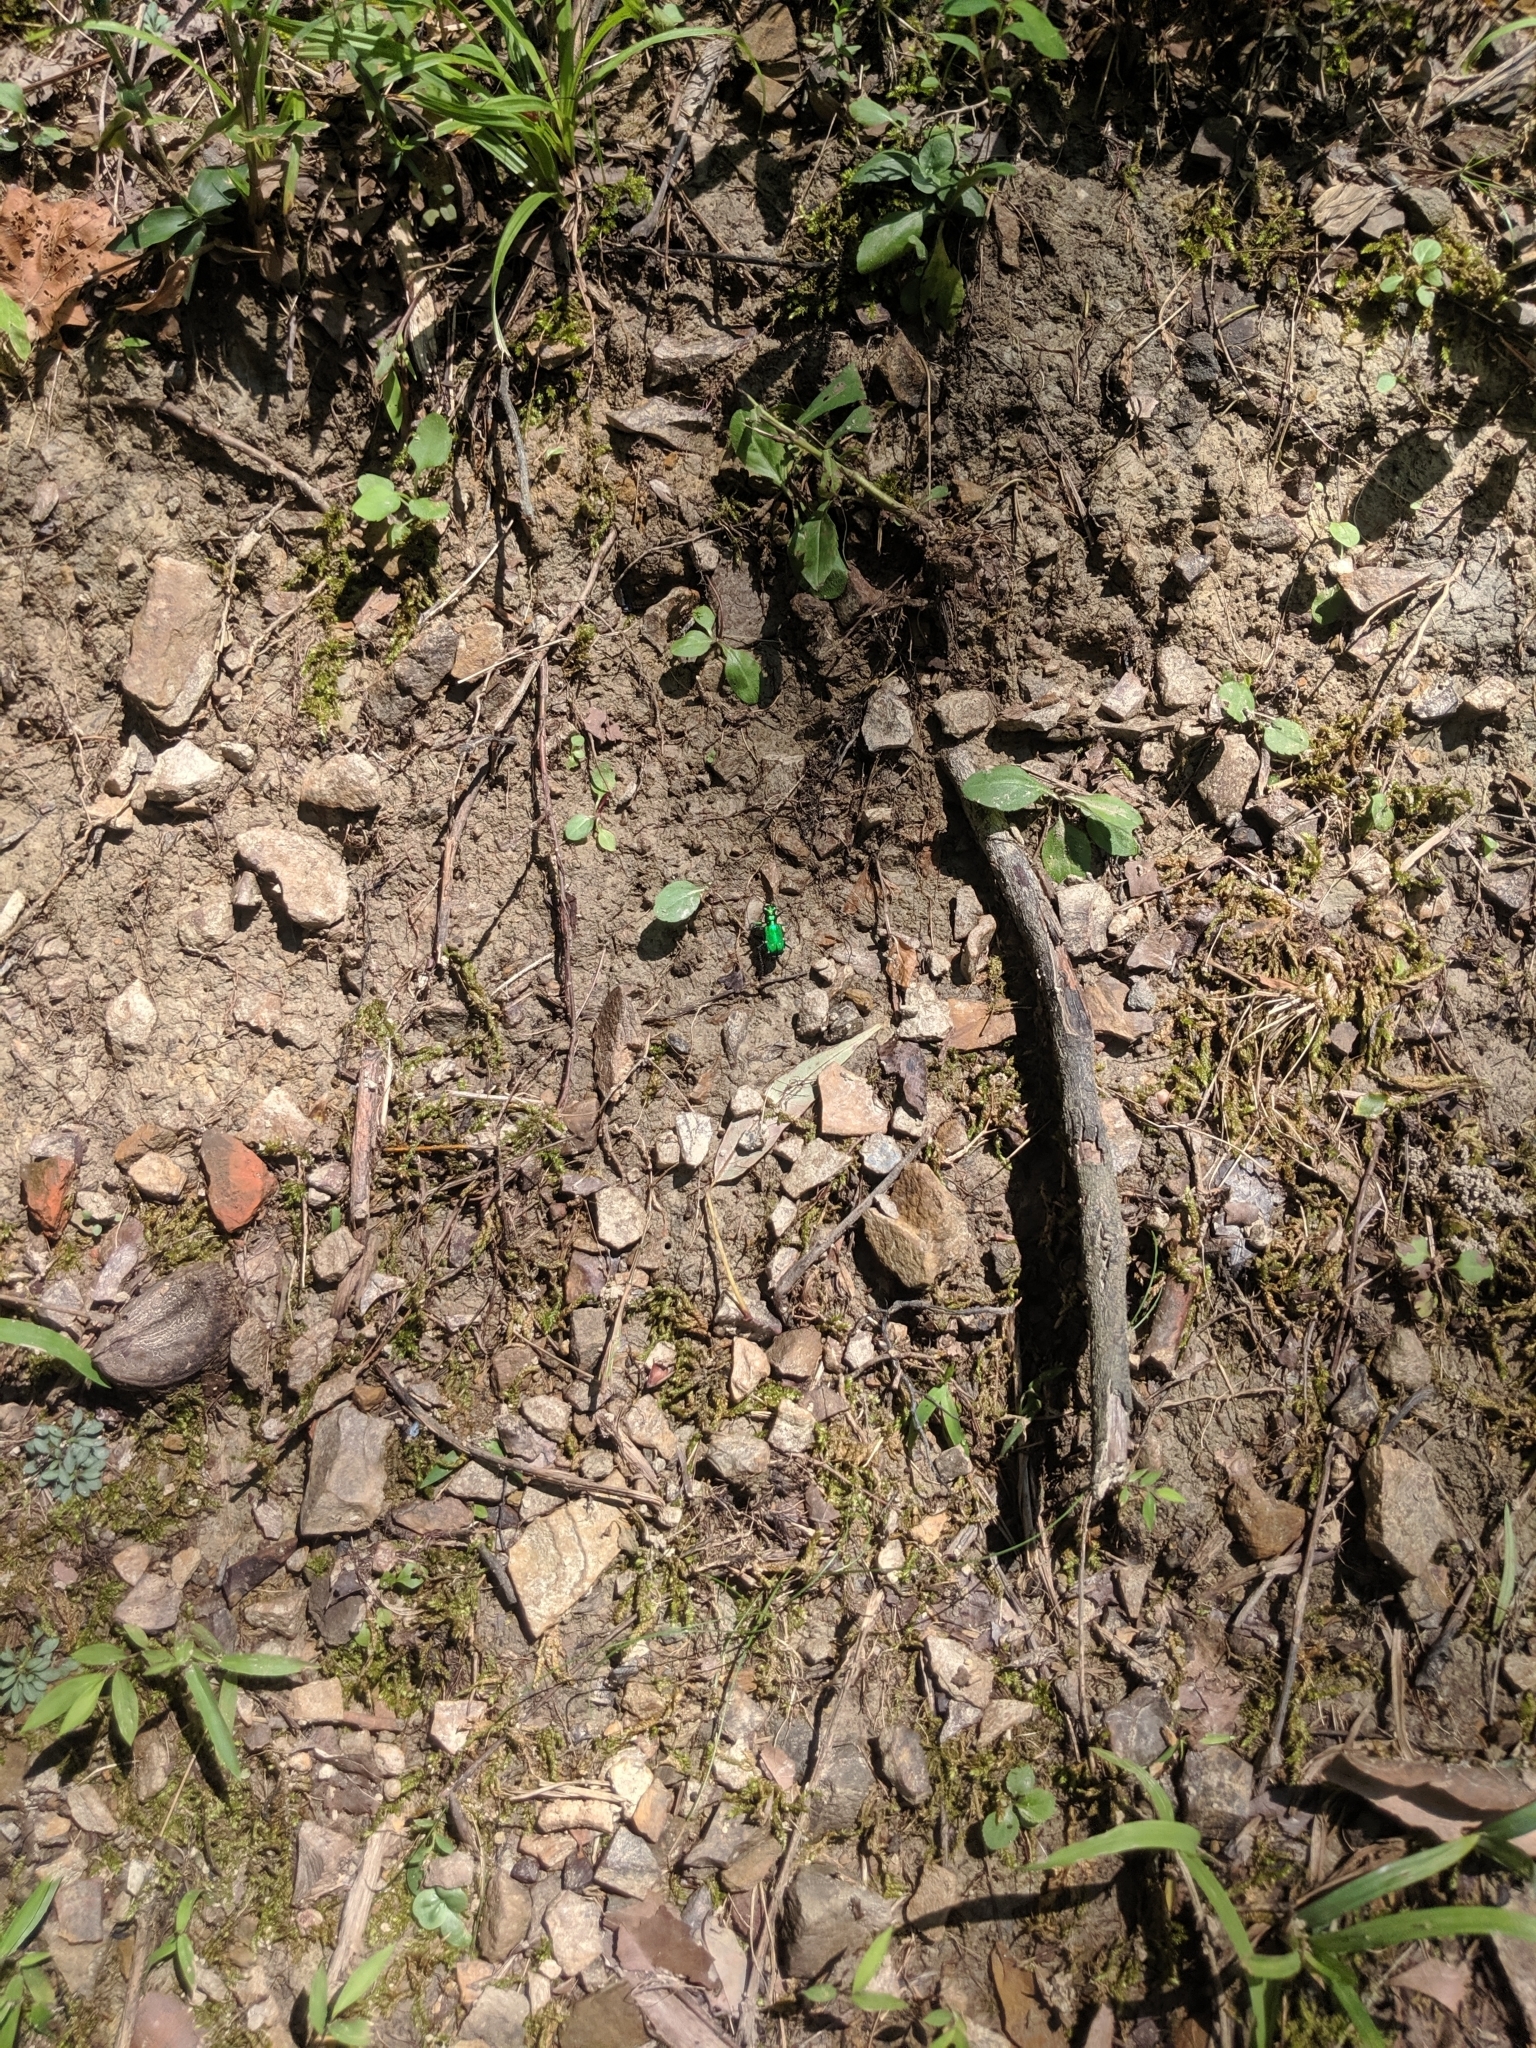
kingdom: Animalia
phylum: Arthropoda
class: Insecta
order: Coleoptera
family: Carabidae
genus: Cicindela
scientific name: Cicindela sexguttata
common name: Six-spotted tiger beetle
